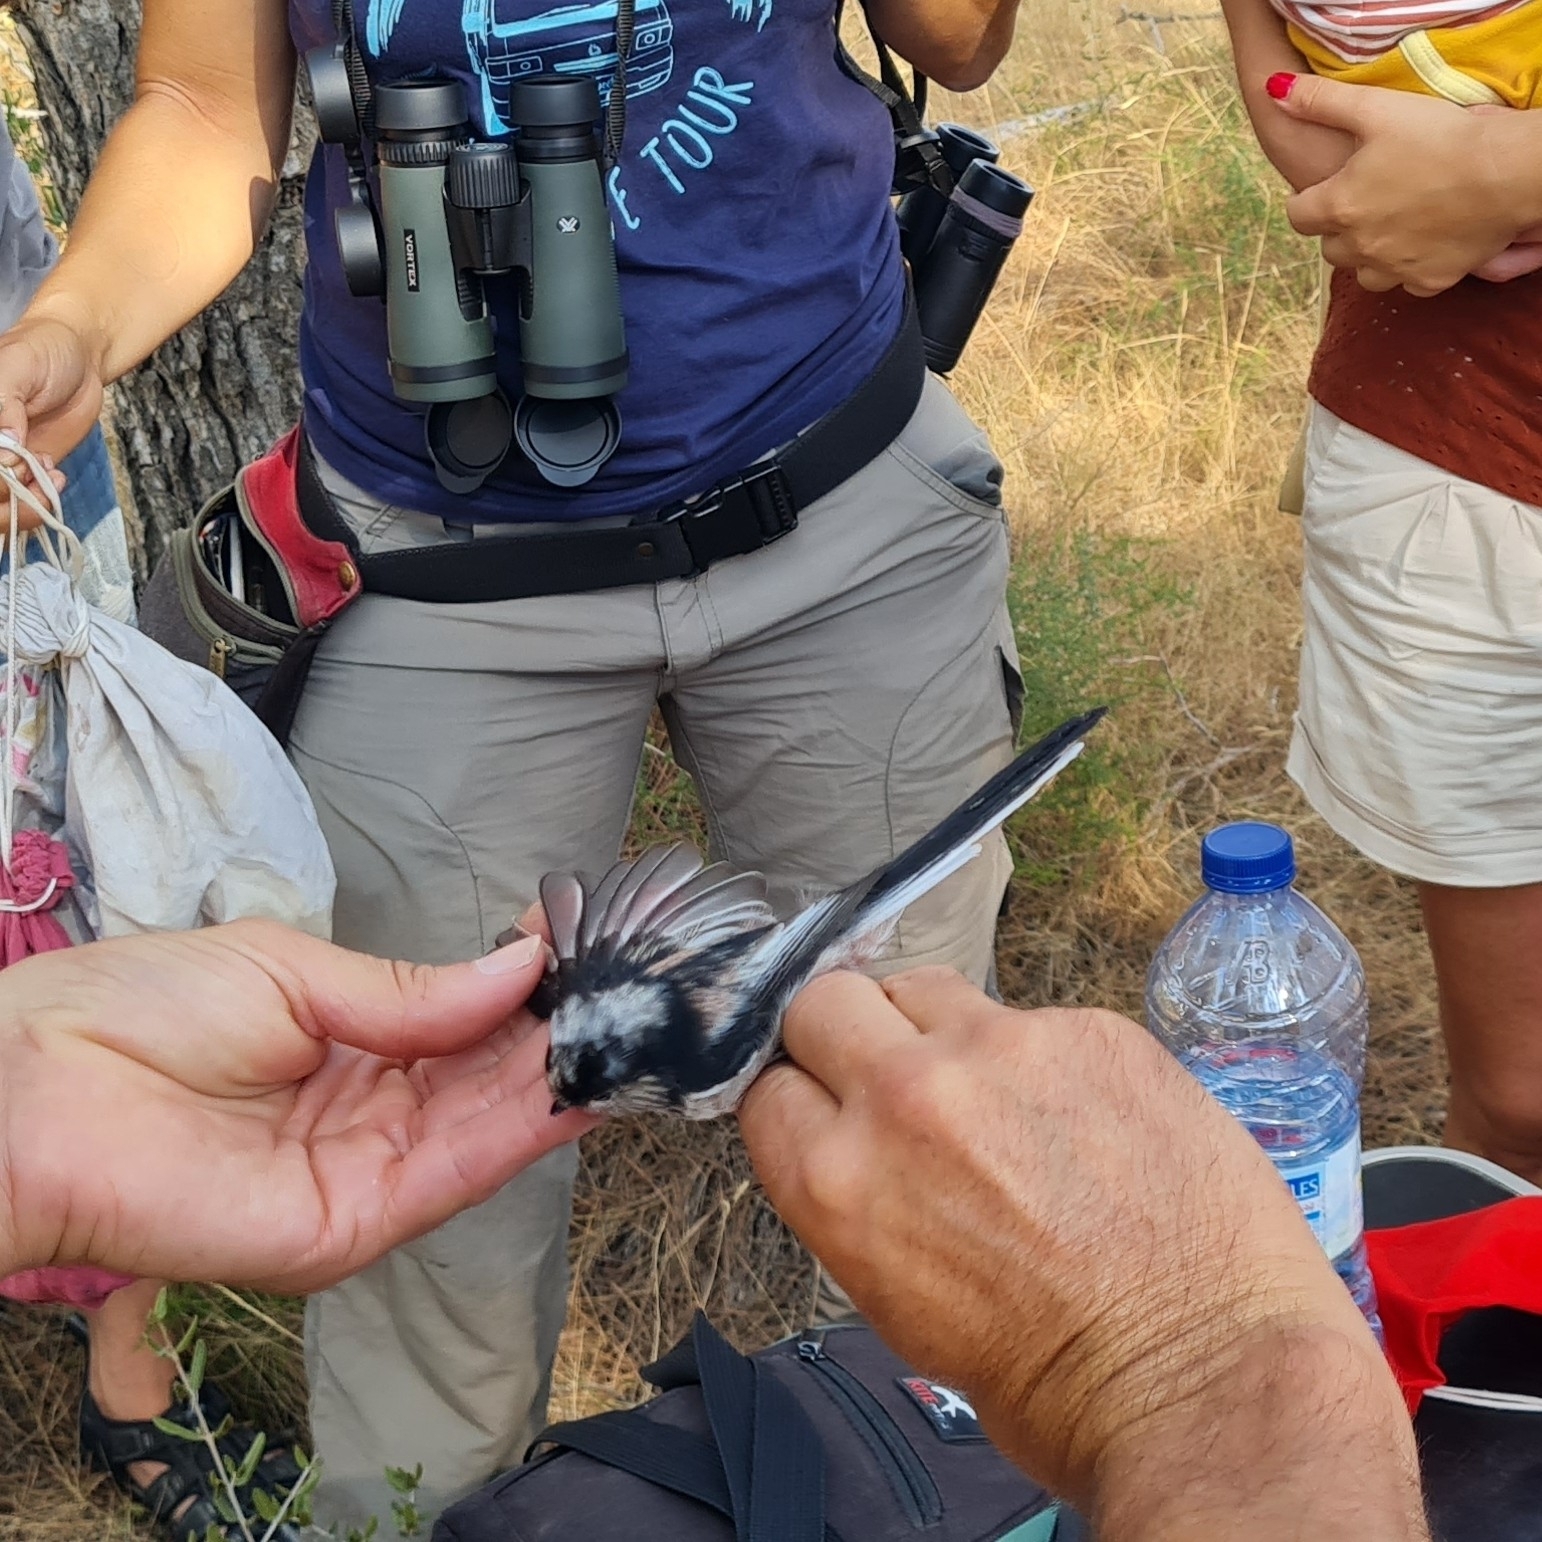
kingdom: Animalia
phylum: Chordata
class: Aves
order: Passeriformes
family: Aegithalidae
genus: Aegithalos
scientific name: Aegithalos caudatus
